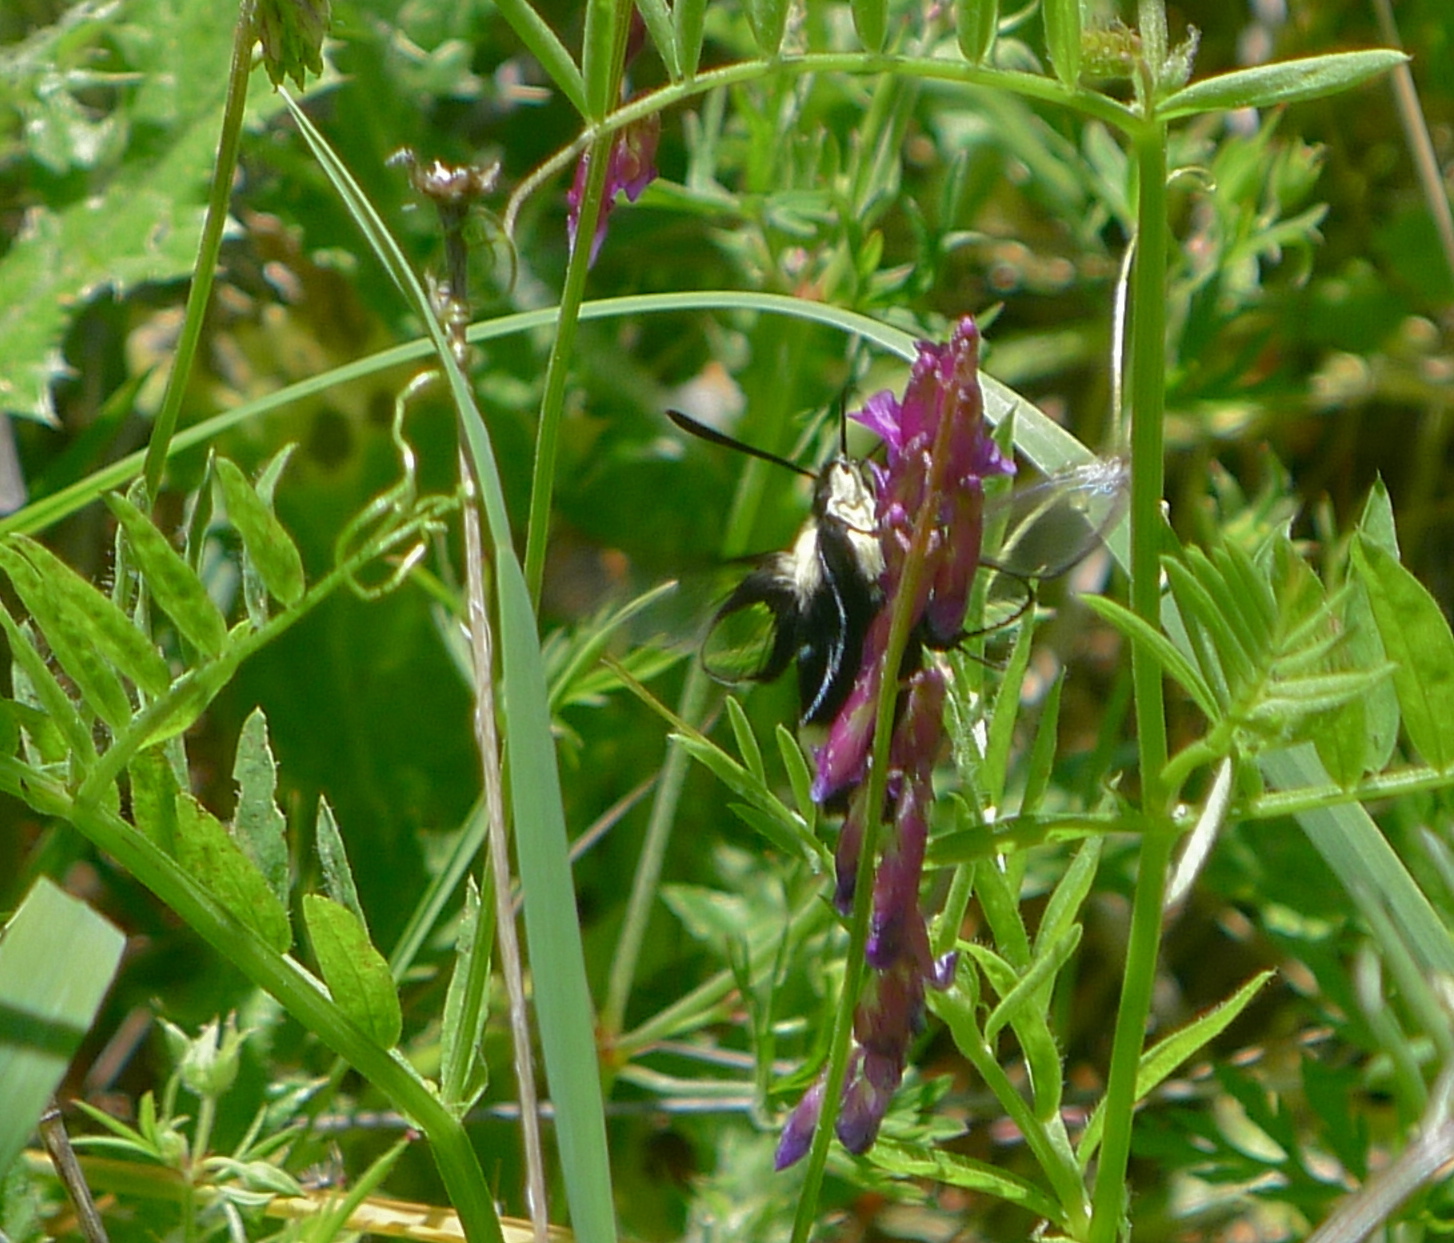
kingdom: Animalia
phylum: Arthropoda
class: Insecta
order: Lepidoptera
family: Sphingidae
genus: Hemaris
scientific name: Hemaris thetis
